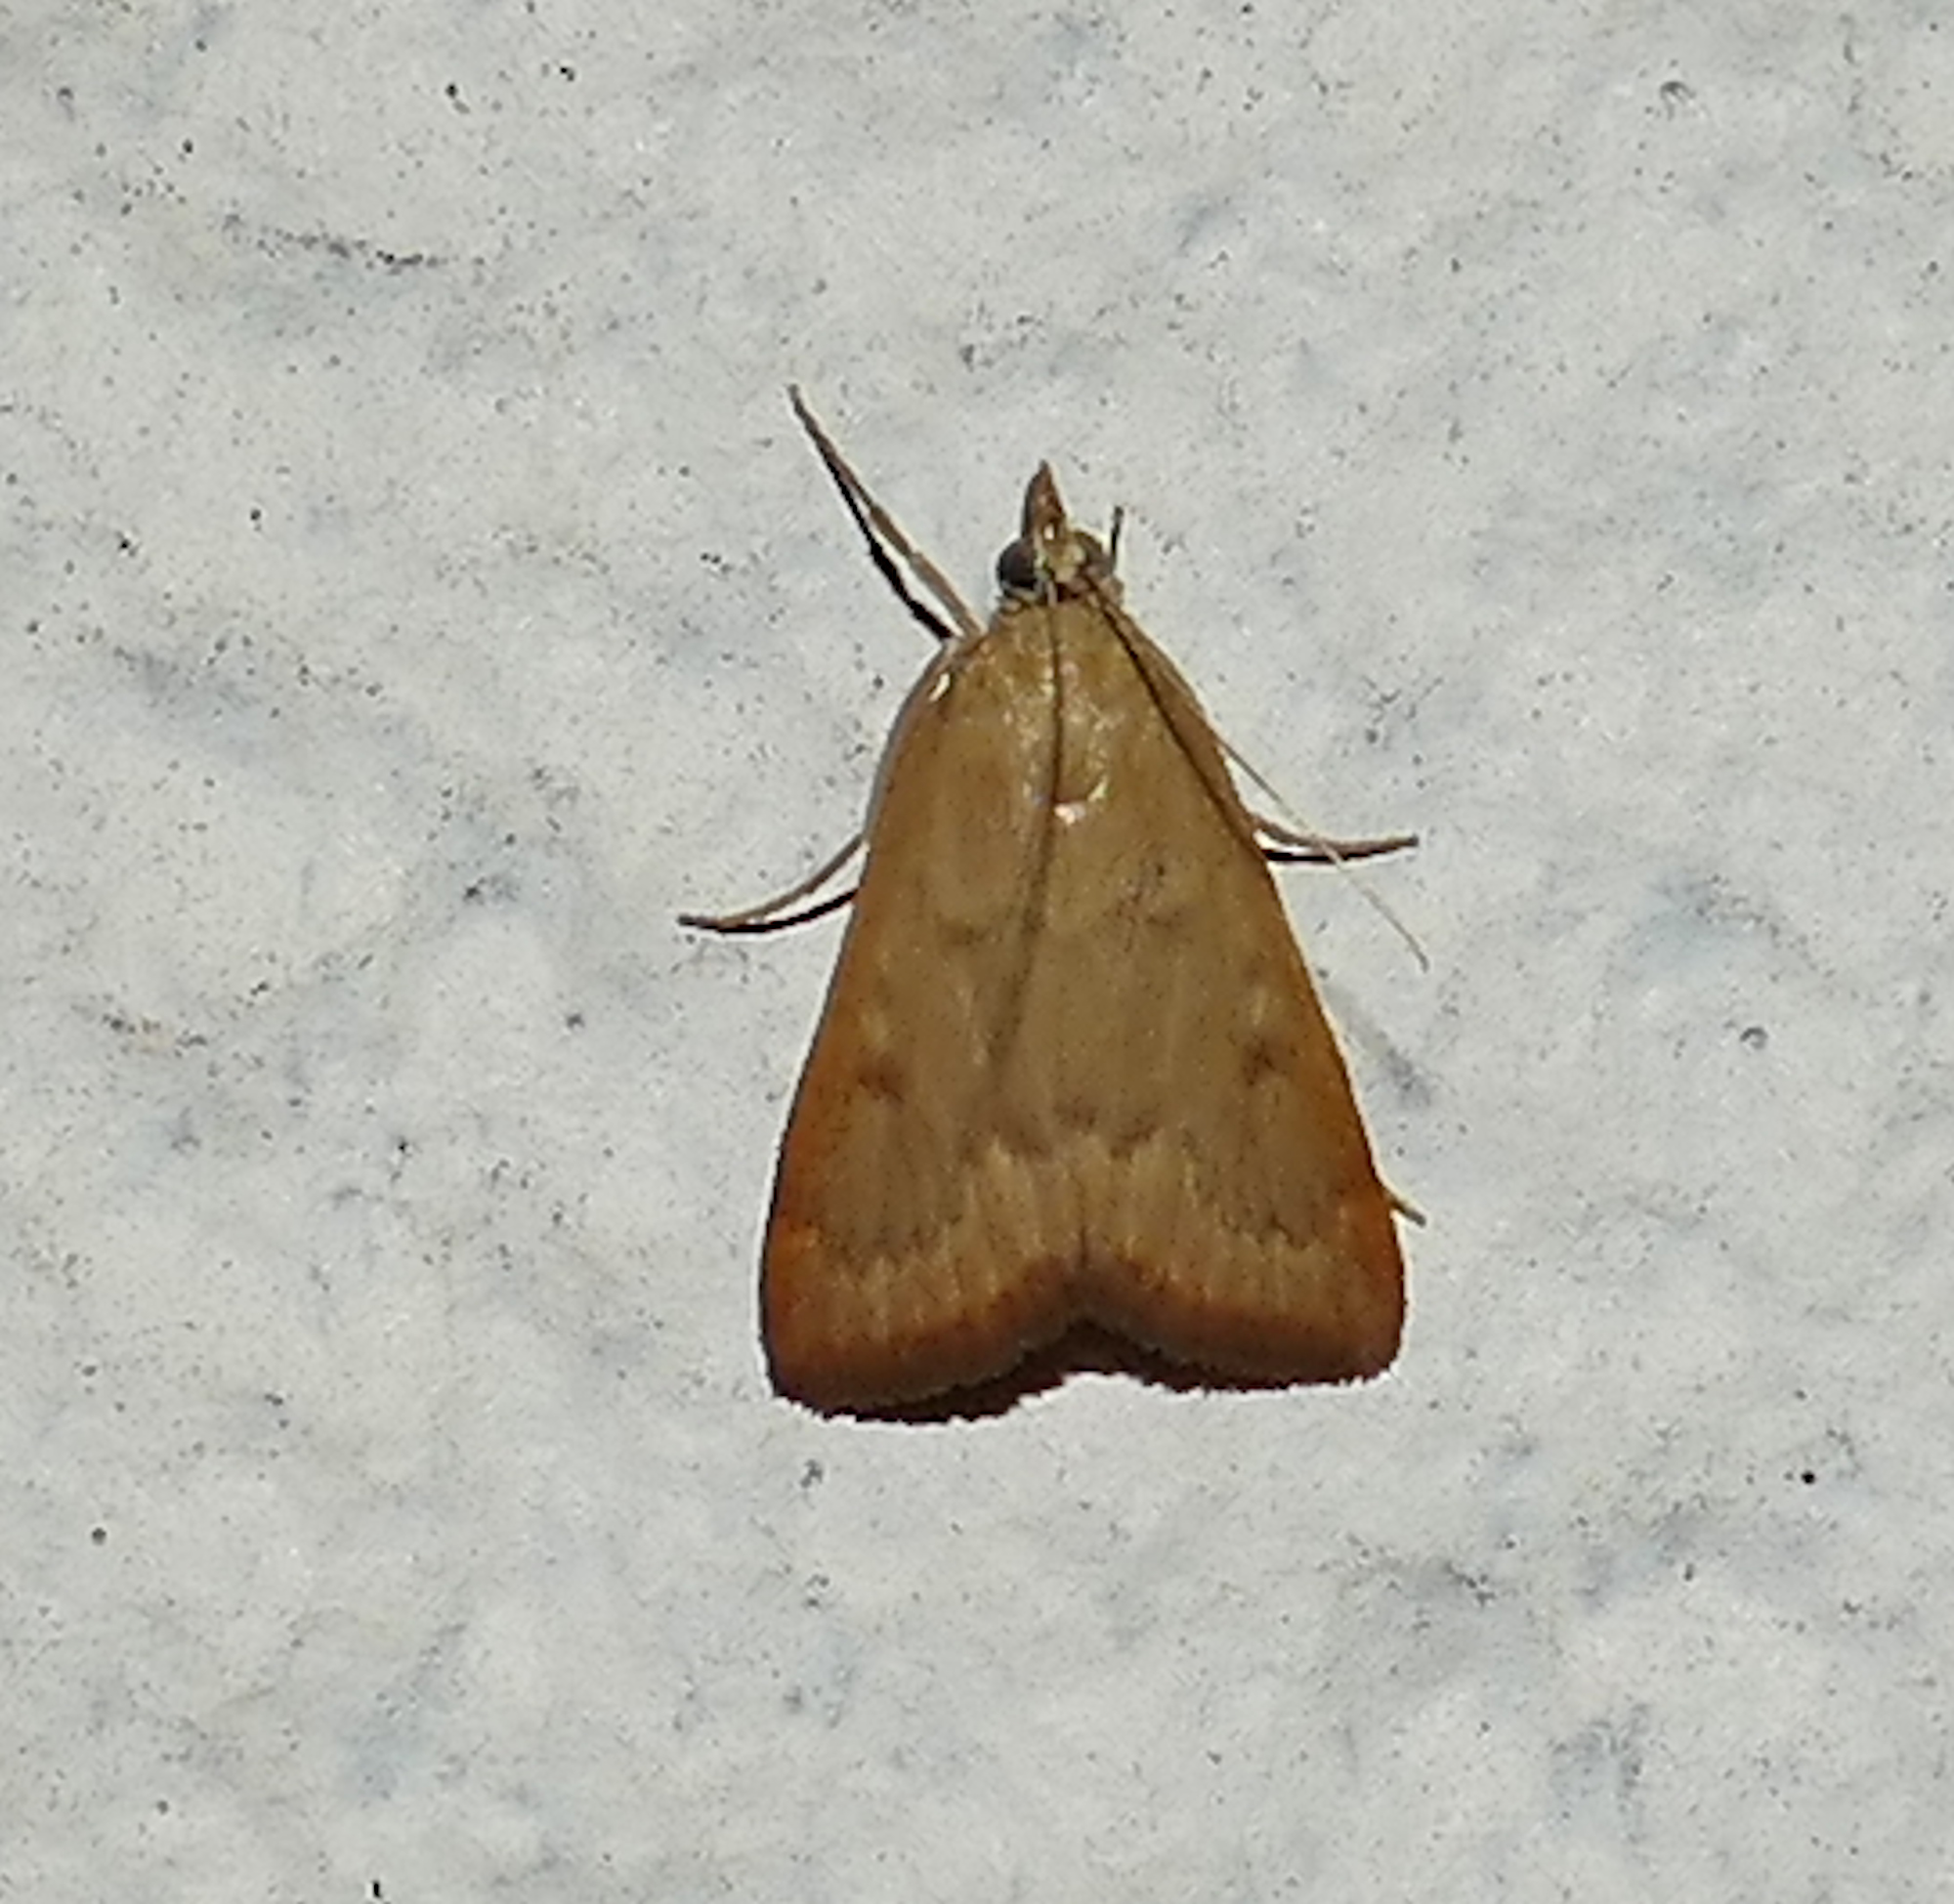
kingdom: Animalia
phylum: Arthropoda
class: Insecta
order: Lepidoptera
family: Crambidae
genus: Achyra
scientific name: Achyra rantalis
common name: Garden webworm
